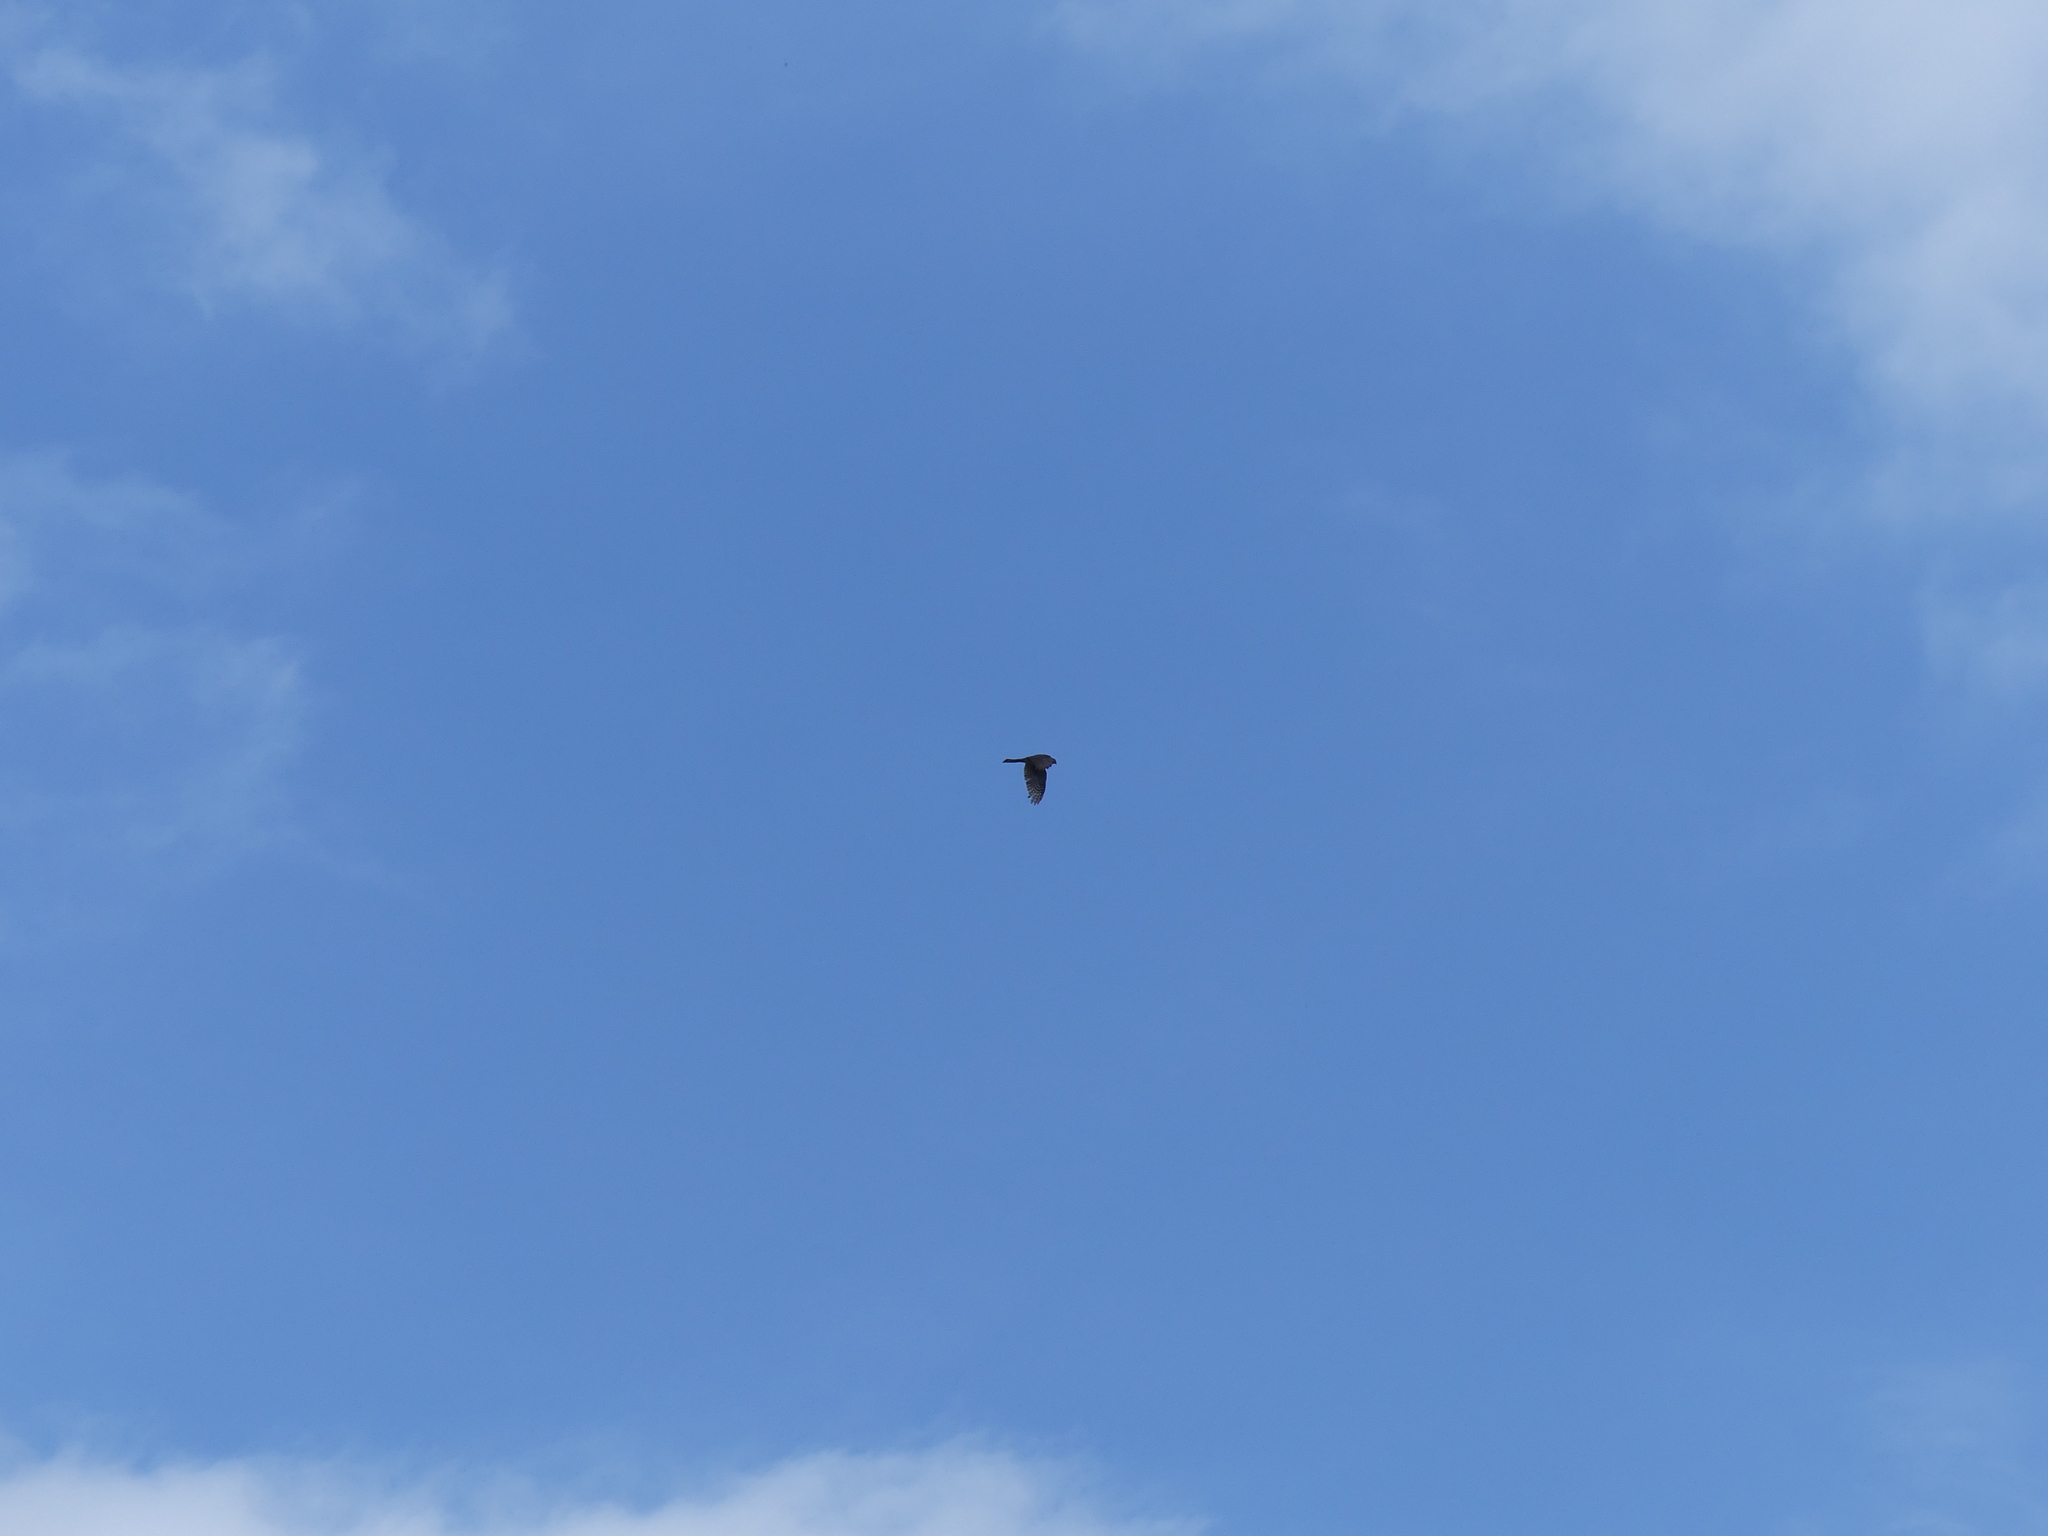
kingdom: Animalia
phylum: Chordata
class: Aves
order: Accipitriformes
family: Accipitridae
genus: Accipiter
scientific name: Accipiter striatus
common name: Sharp-shinned hawk
